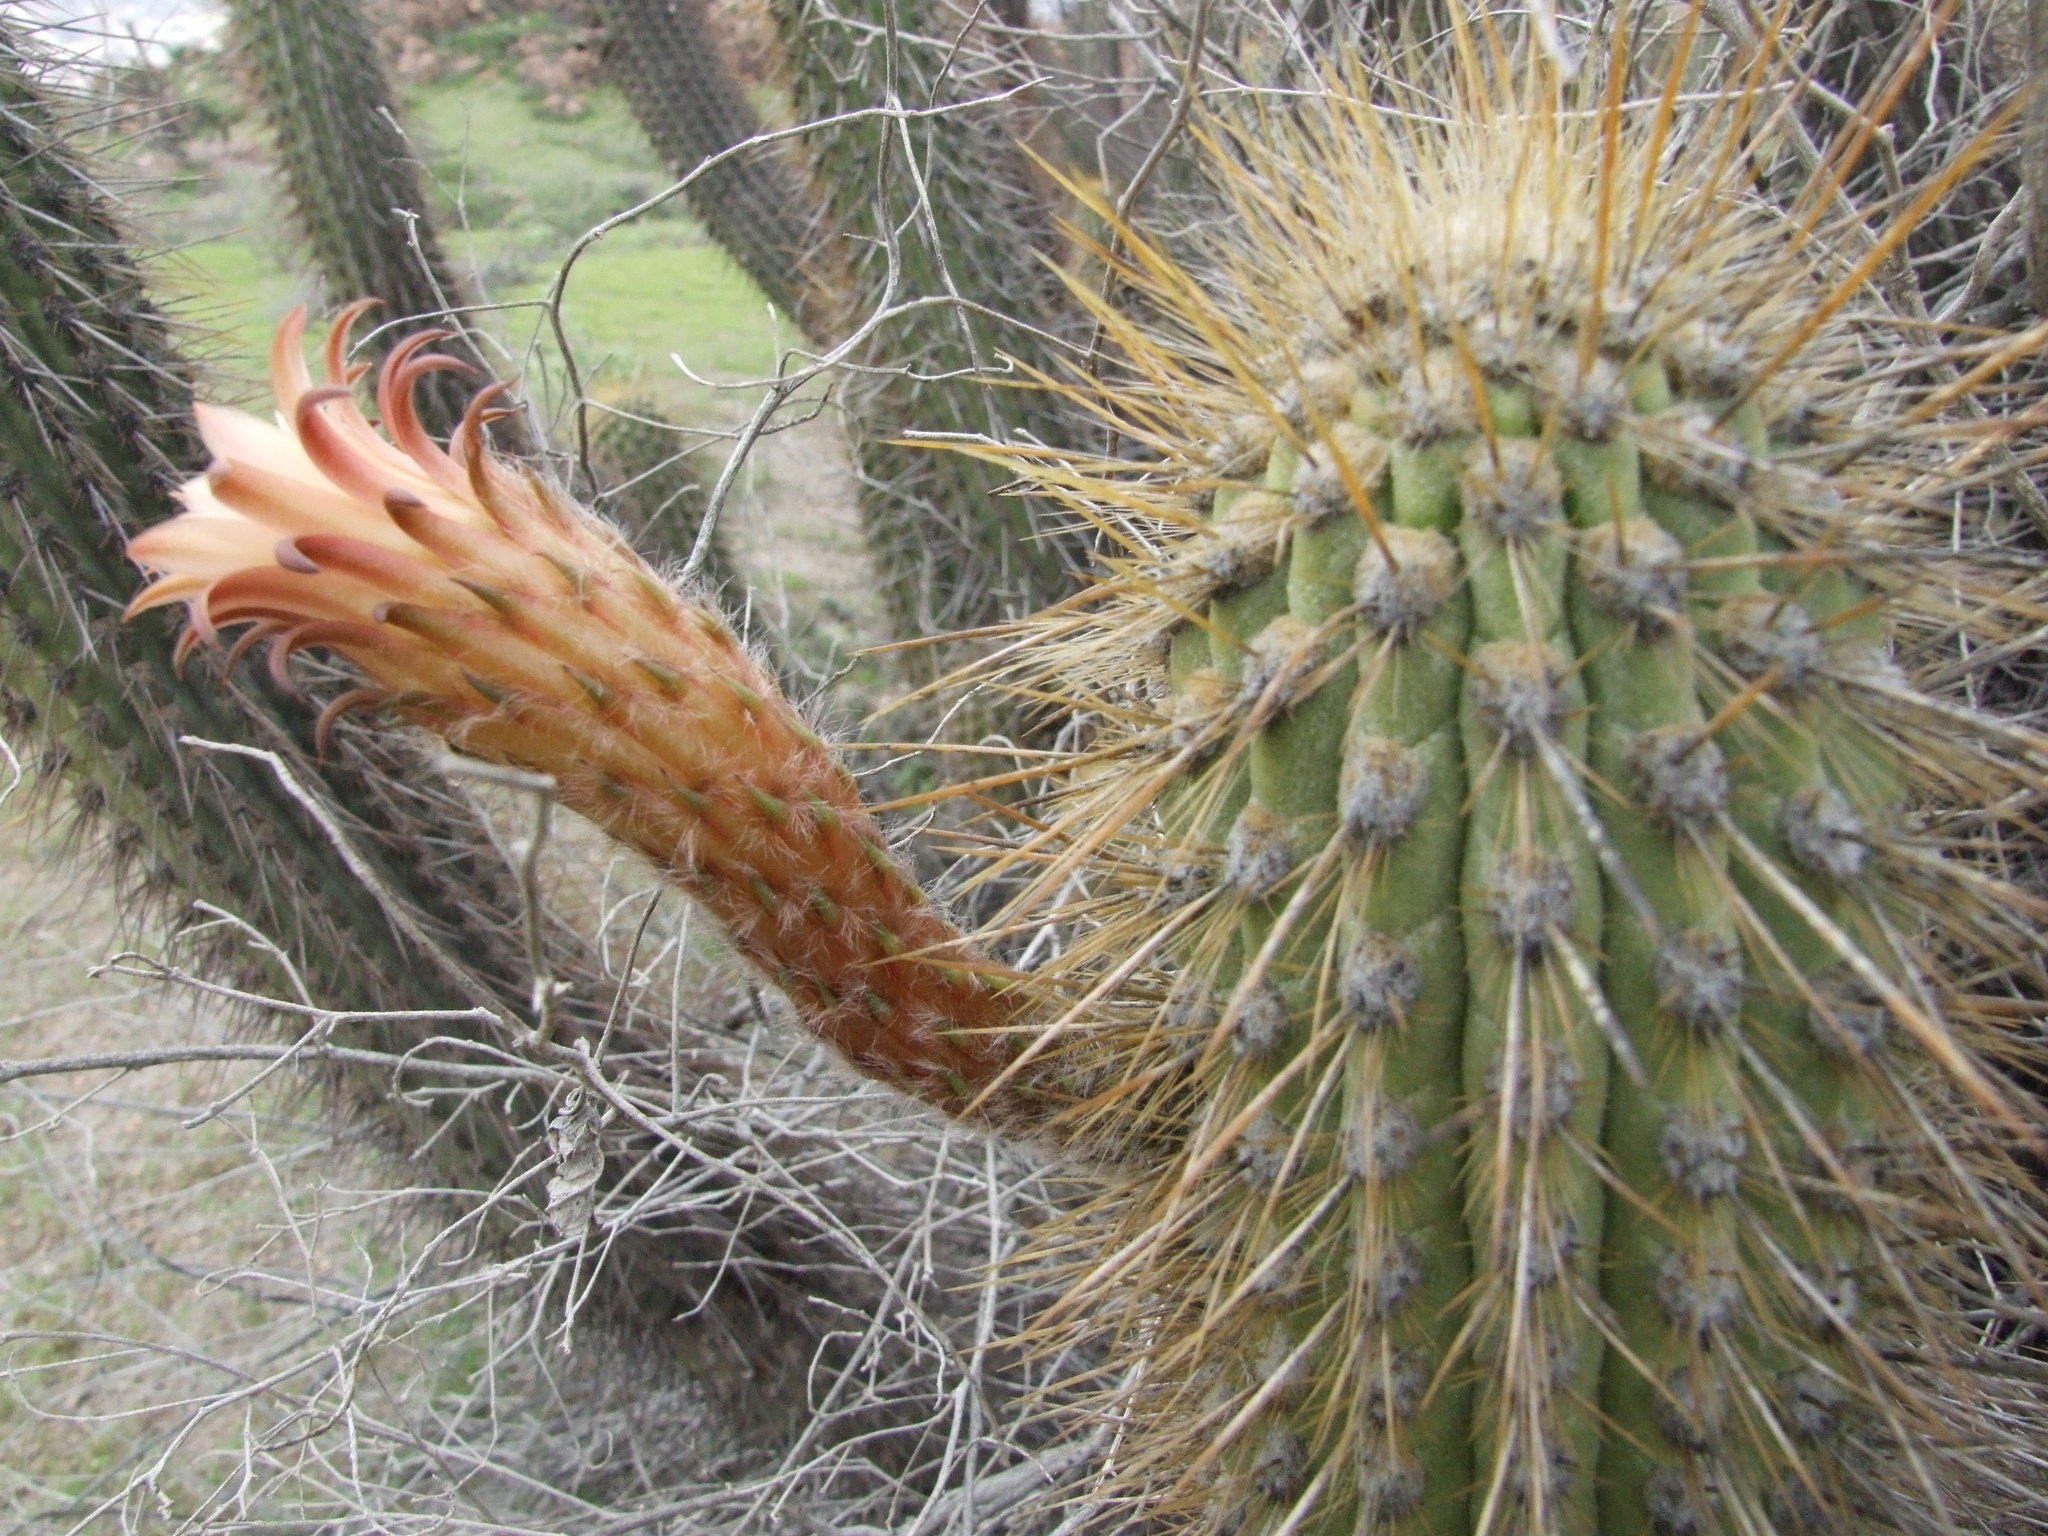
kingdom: Plantae
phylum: Tracheophyta
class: Magnoliopsida
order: Caryophyllales
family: Cactaceae
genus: Weberbauerocereus
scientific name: Weberbauerocereus weberbaueri
